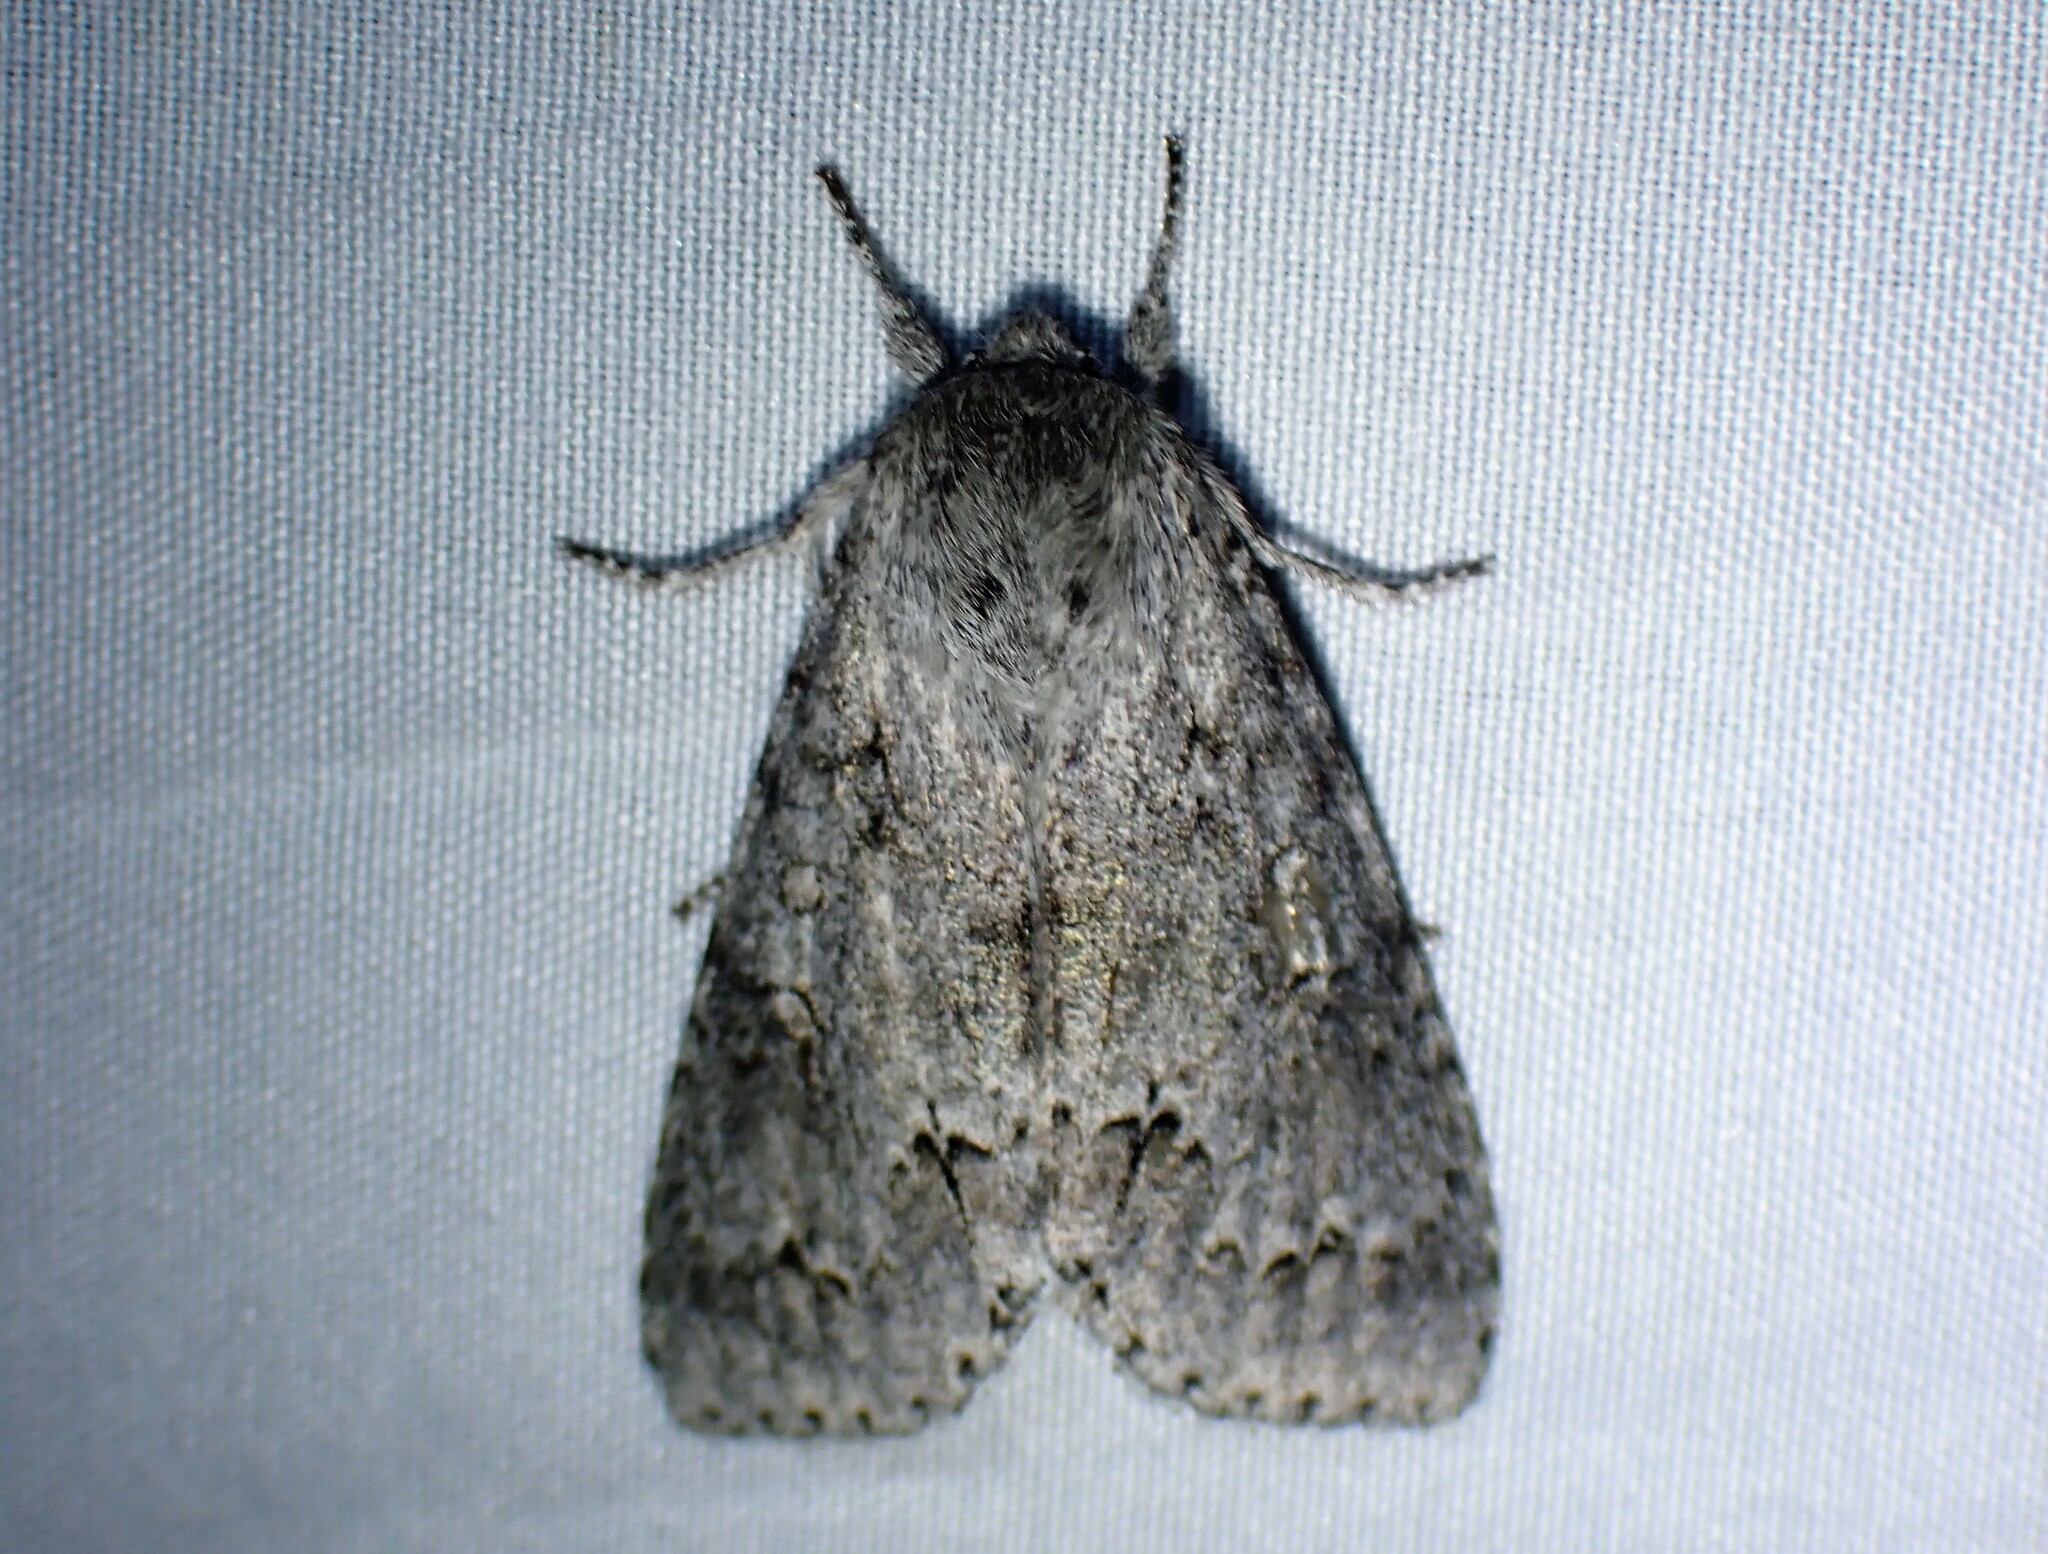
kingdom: Animalia
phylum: Arthropoda
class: Insecta
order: Lepidoptera
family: Noctuidae
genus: Acronicta
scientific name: Acronicta insita
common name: Large gray dagger
